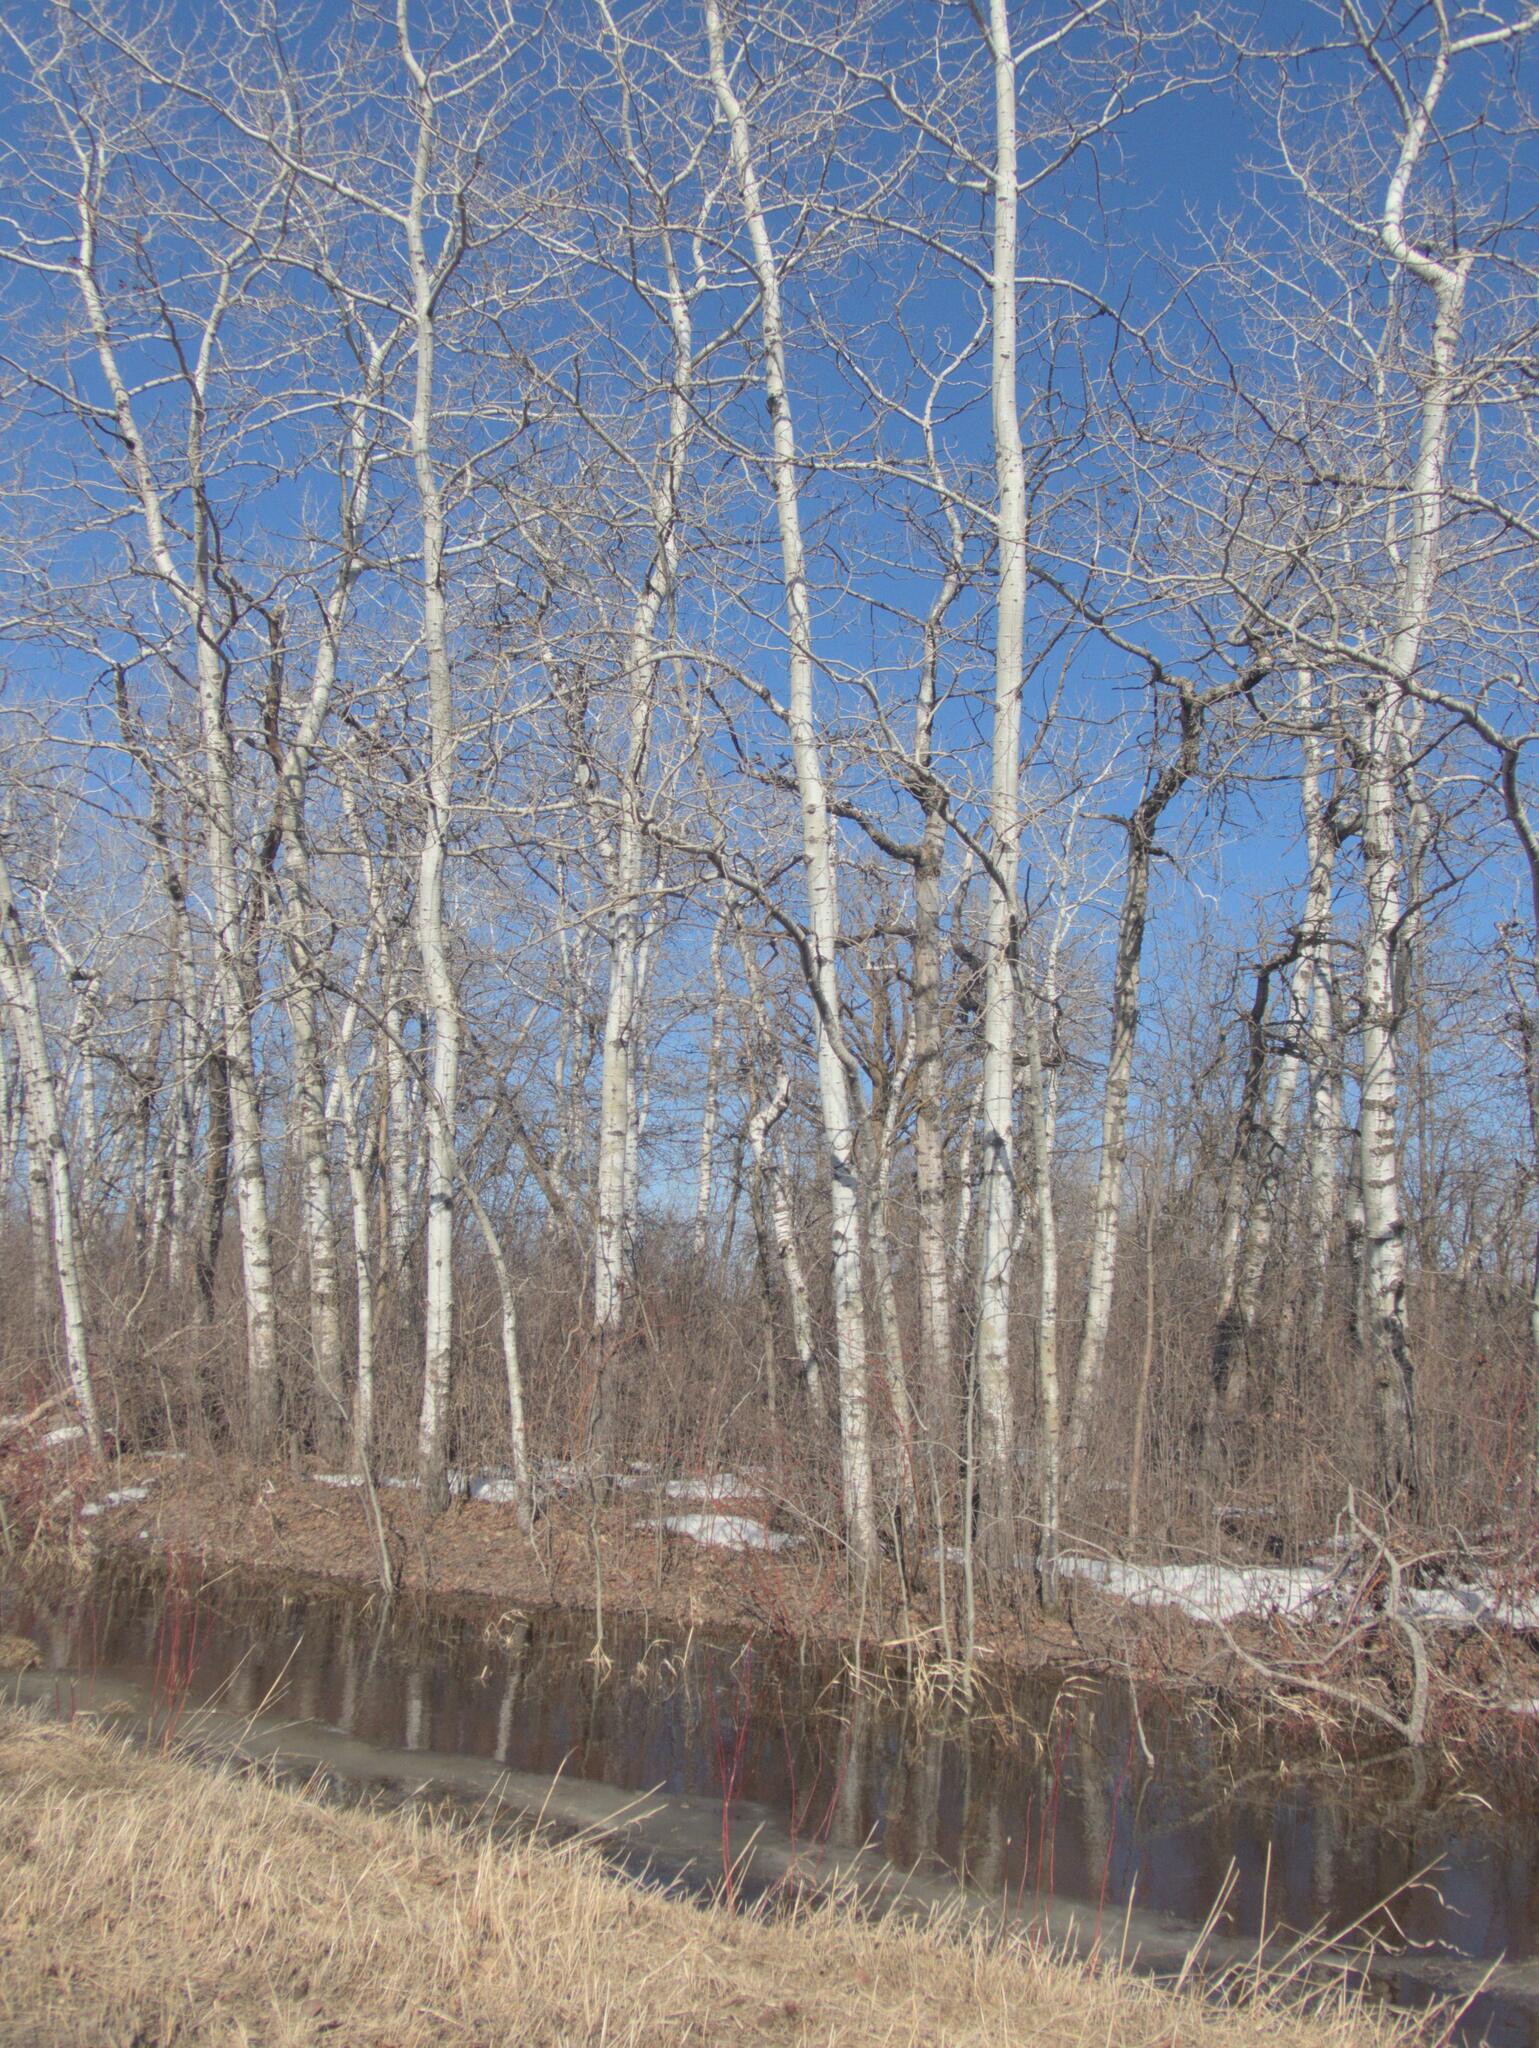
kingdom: Plantae
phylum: Tracheophyta
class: Magnoliopsida
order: Malpighiales
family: Salicaceae
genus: Populus
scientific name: Populus tremuloides
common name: Quaking aspen
